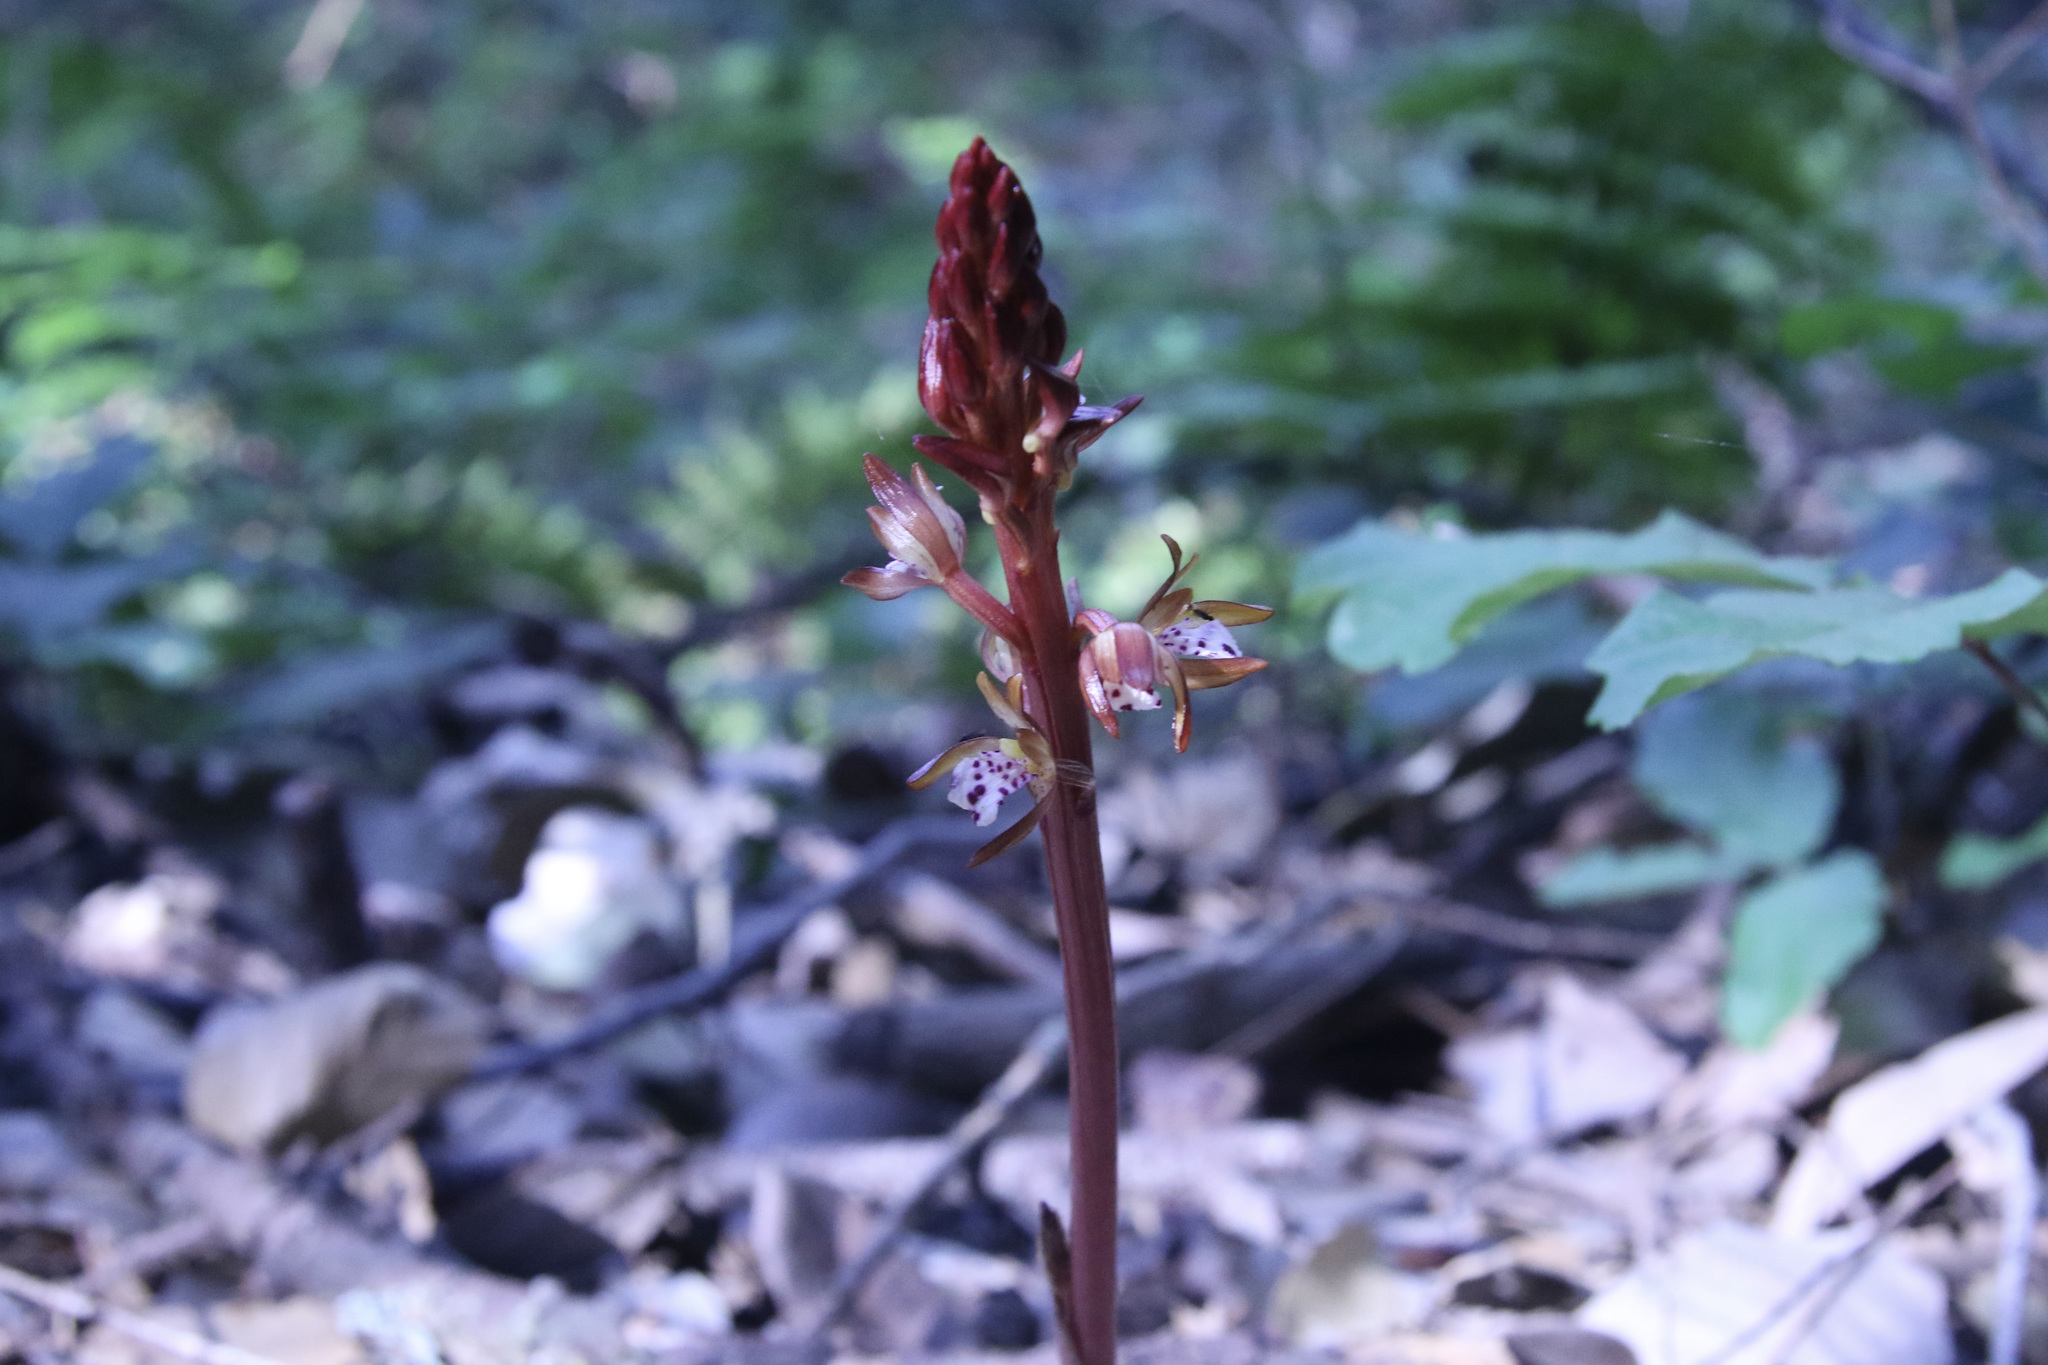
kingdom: Plantae
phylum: Tracheophyta
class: Liliopsida
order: Asparagales
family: Orchidaceae
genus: Corallorhiza
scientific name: Corallorhiza maculata
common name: Spotted coralroot
